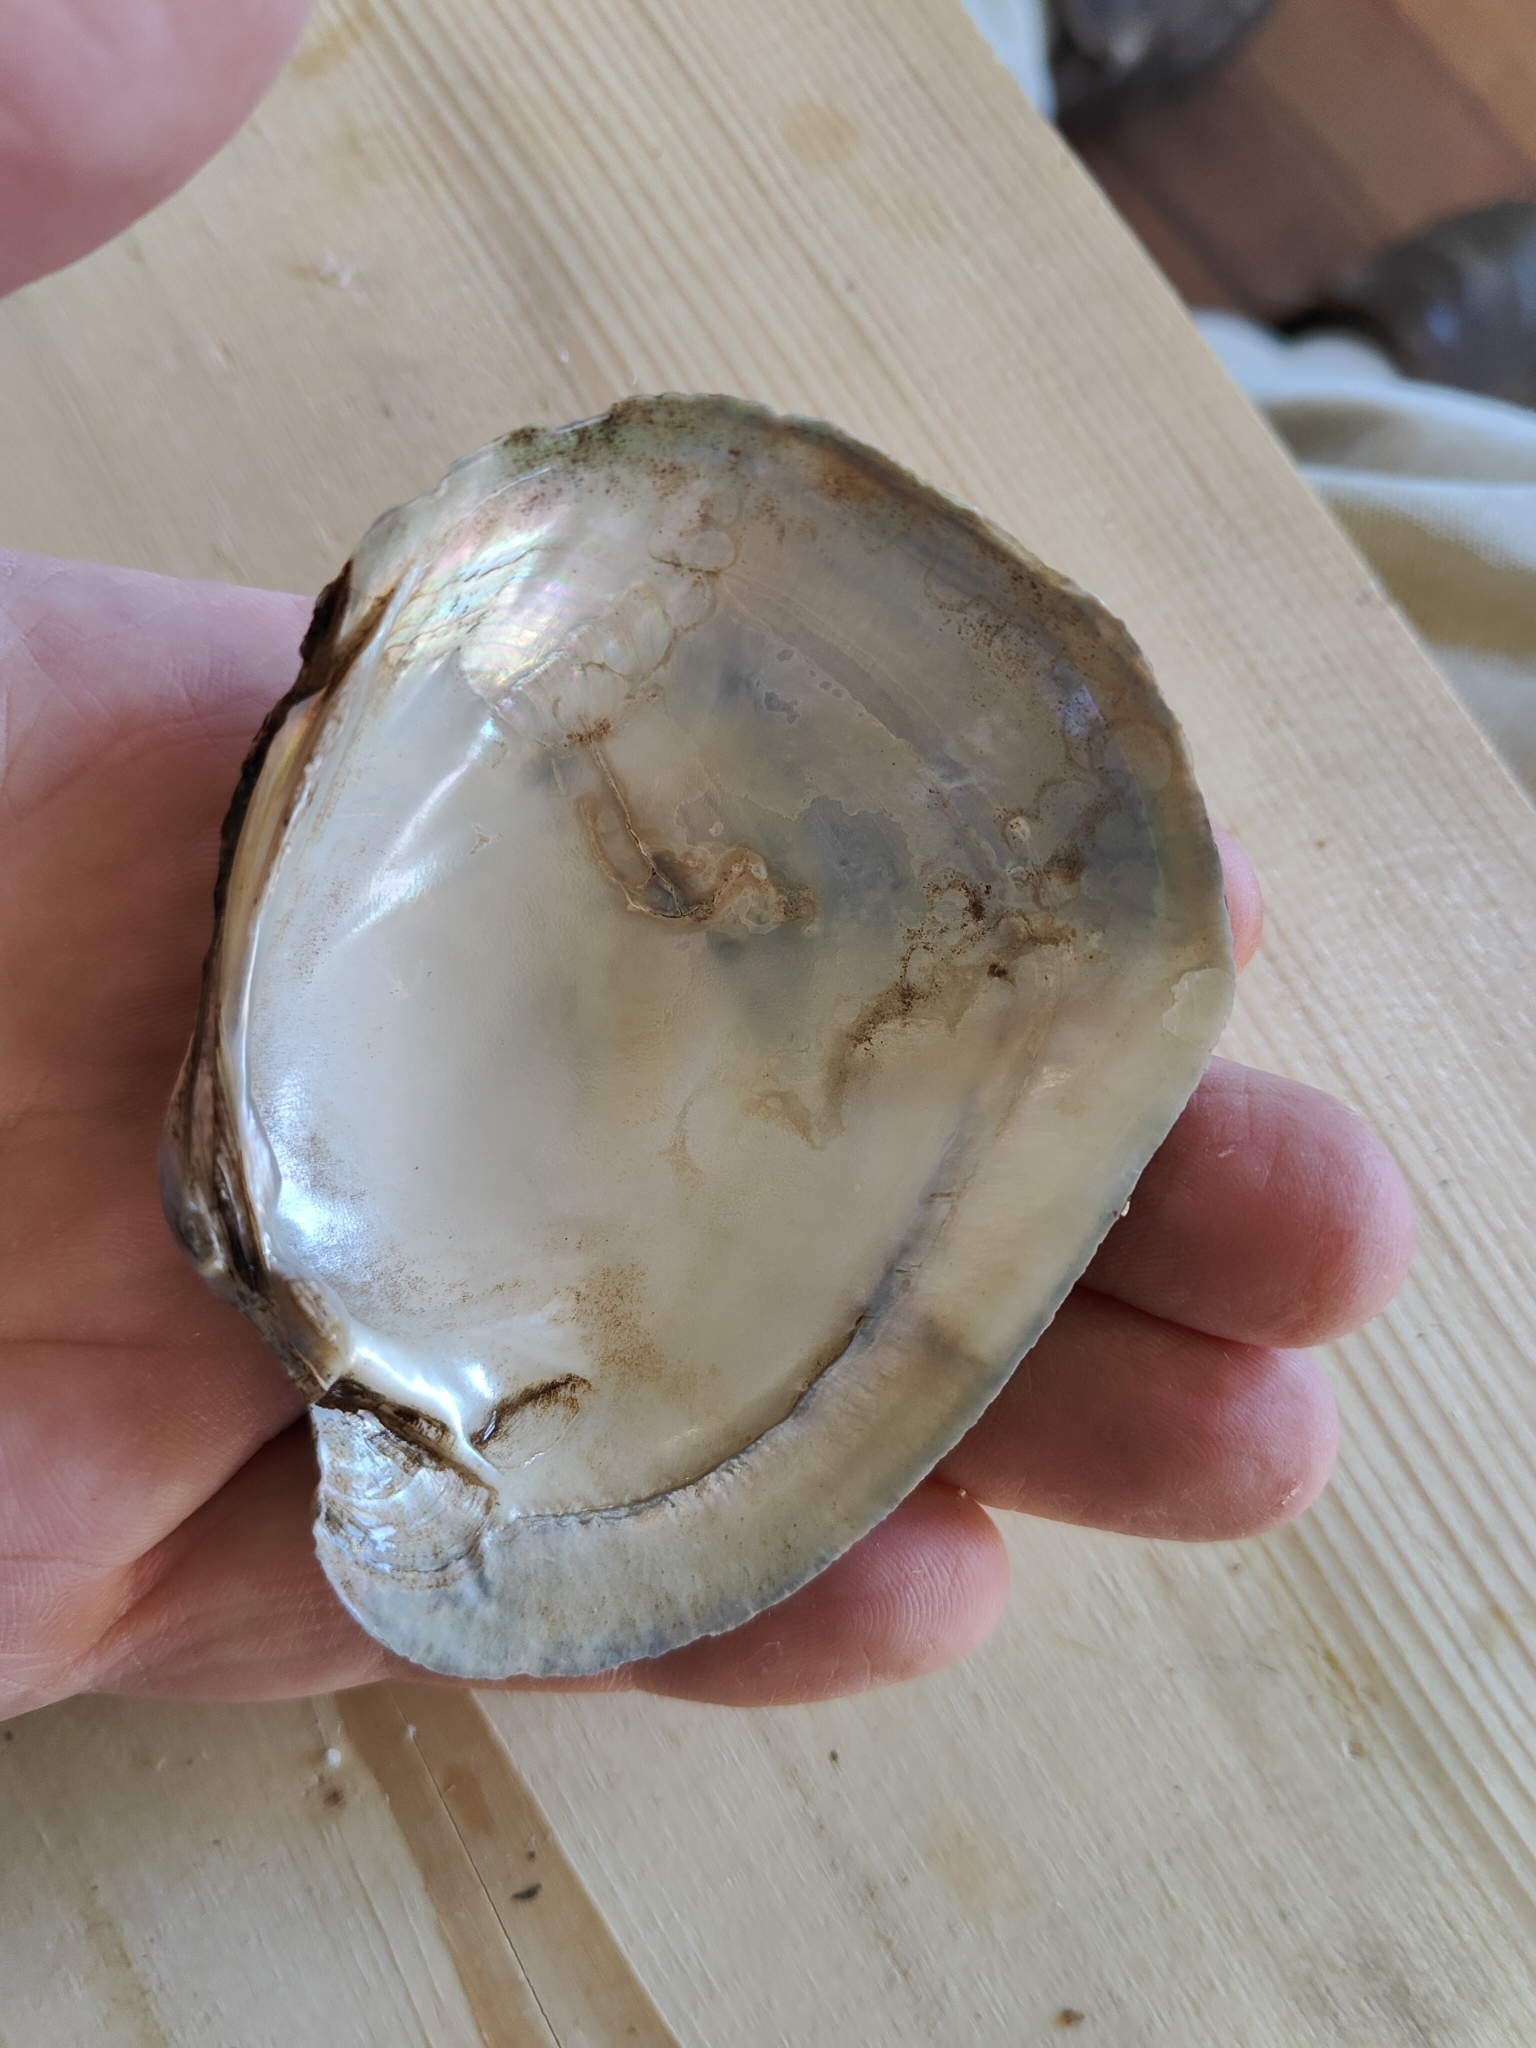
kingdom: Animalia
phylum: Mollusca
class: Bivalvia
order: Unionida
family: Unionidae
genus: Lampsilis
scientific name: Lampsilis cardium
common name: Plain pocketbook
